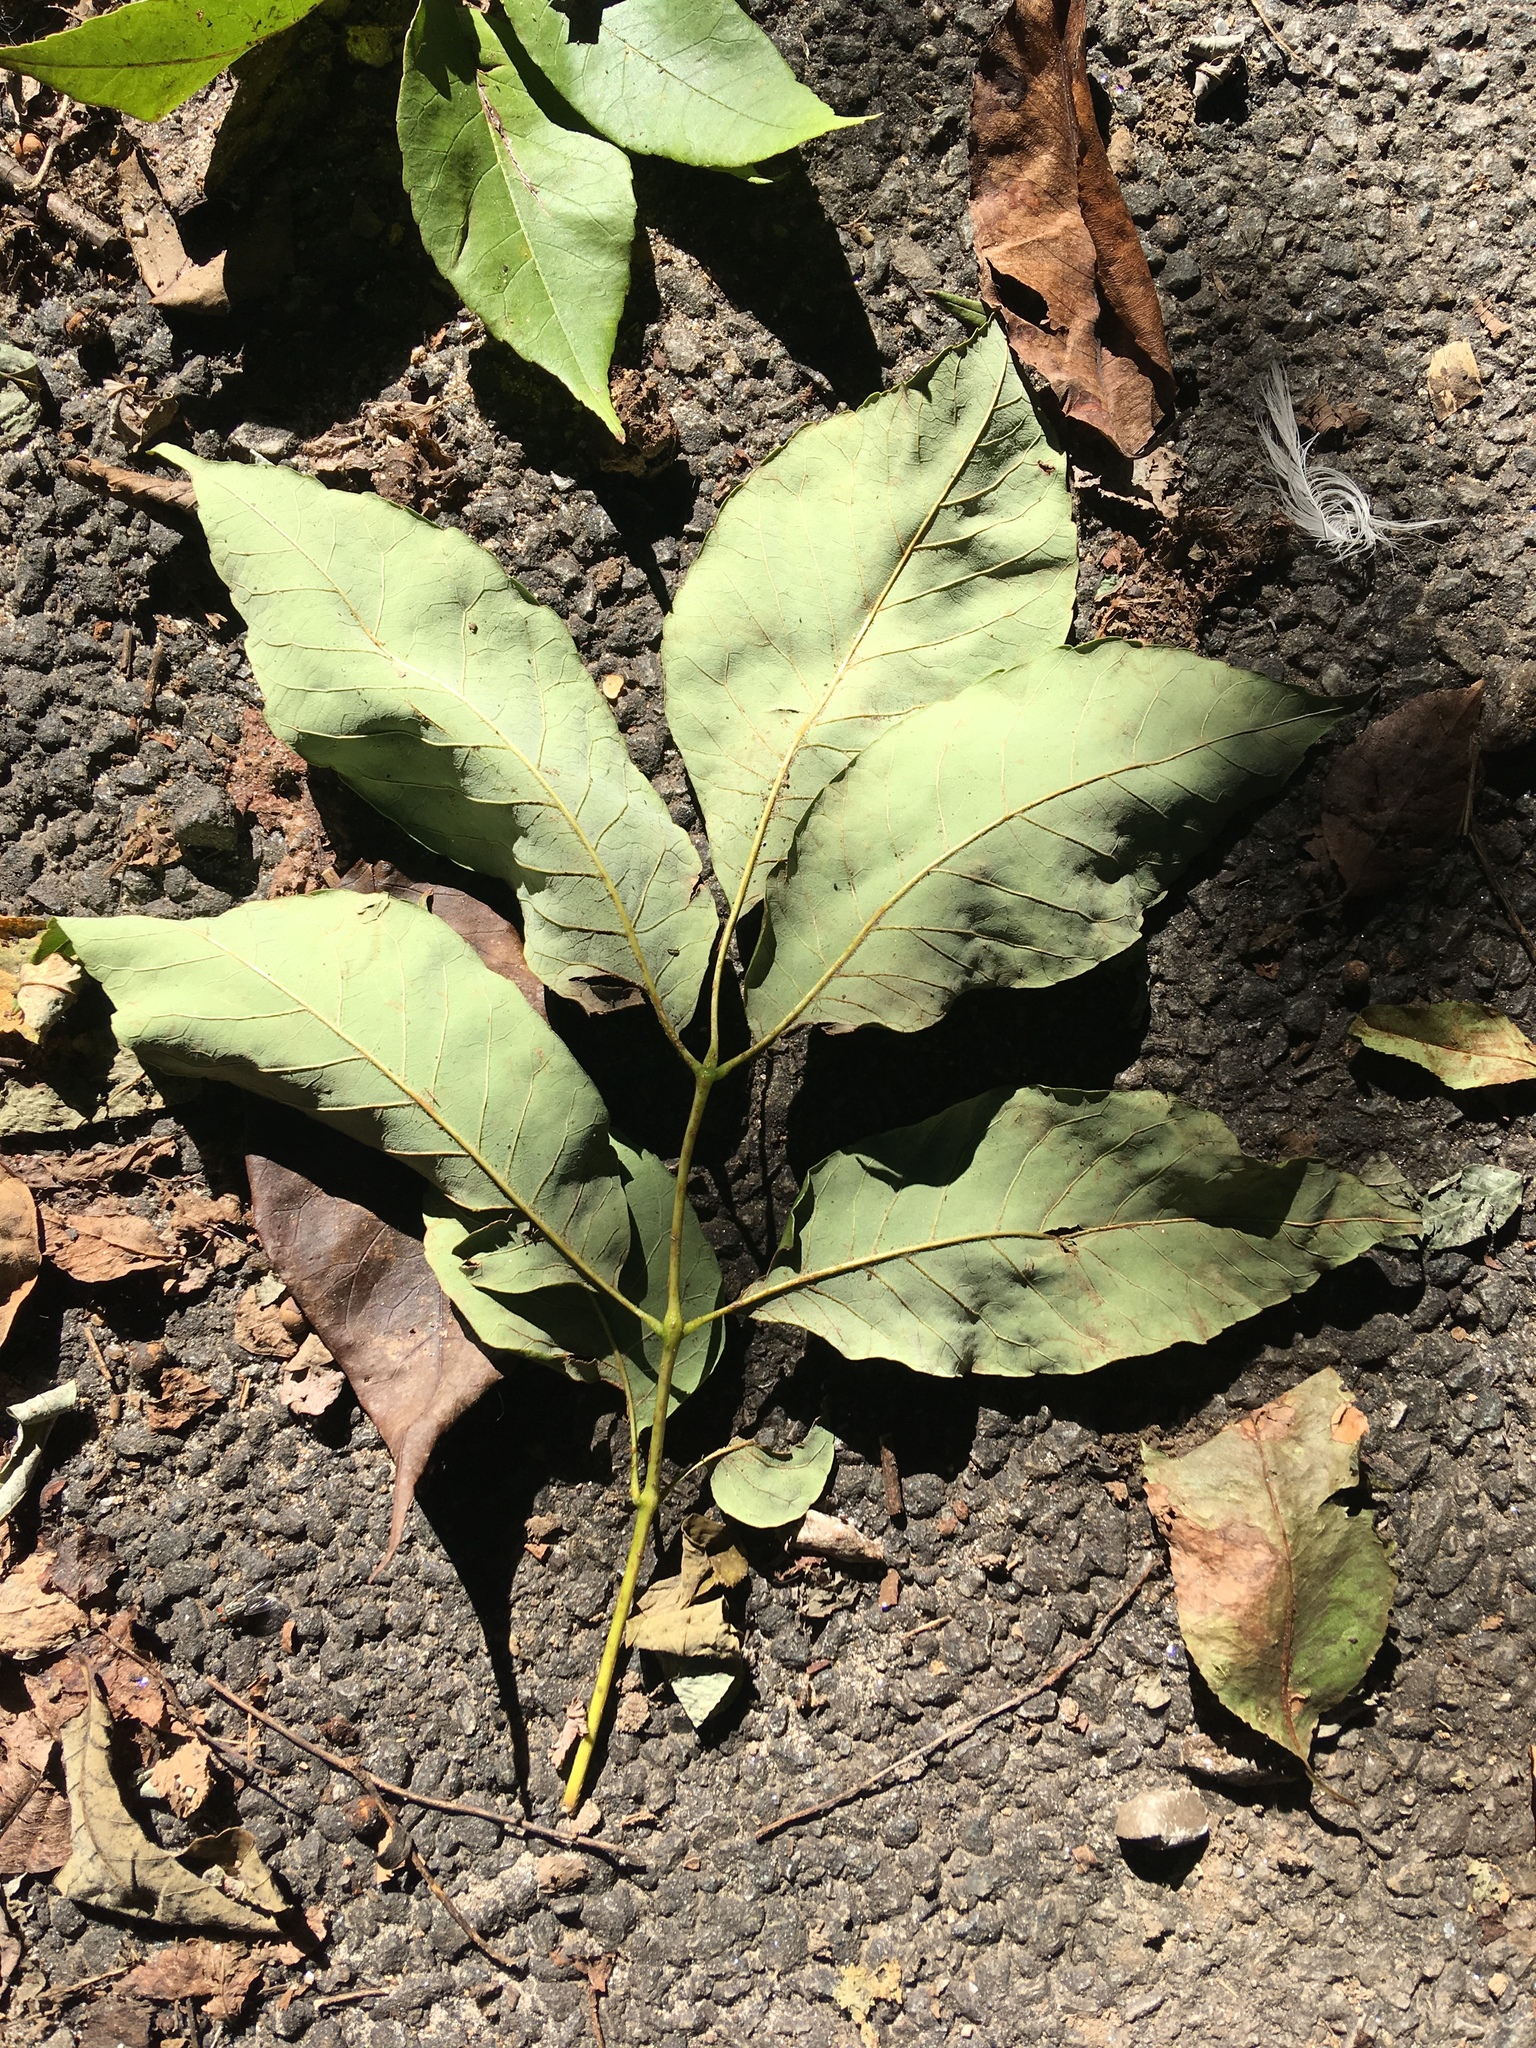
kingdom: Plantae
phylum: Tracheophyta
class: Magnoliopsida
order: Lamiales
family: Oleaceae
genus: Fraxinus
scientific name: Fraxinus americana
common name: White ash
